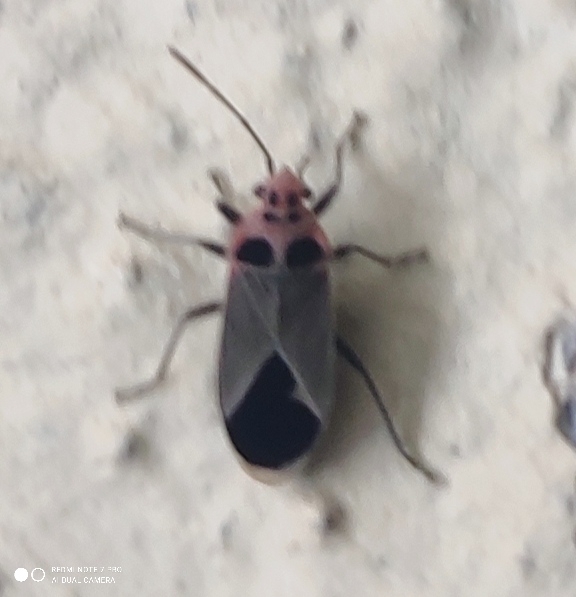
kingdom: Animalia
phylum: Arthropoda
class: Insecta
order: Hemiptera
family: Lygaeidae
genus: Graptostethus
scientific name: Graptostethus argentatus
